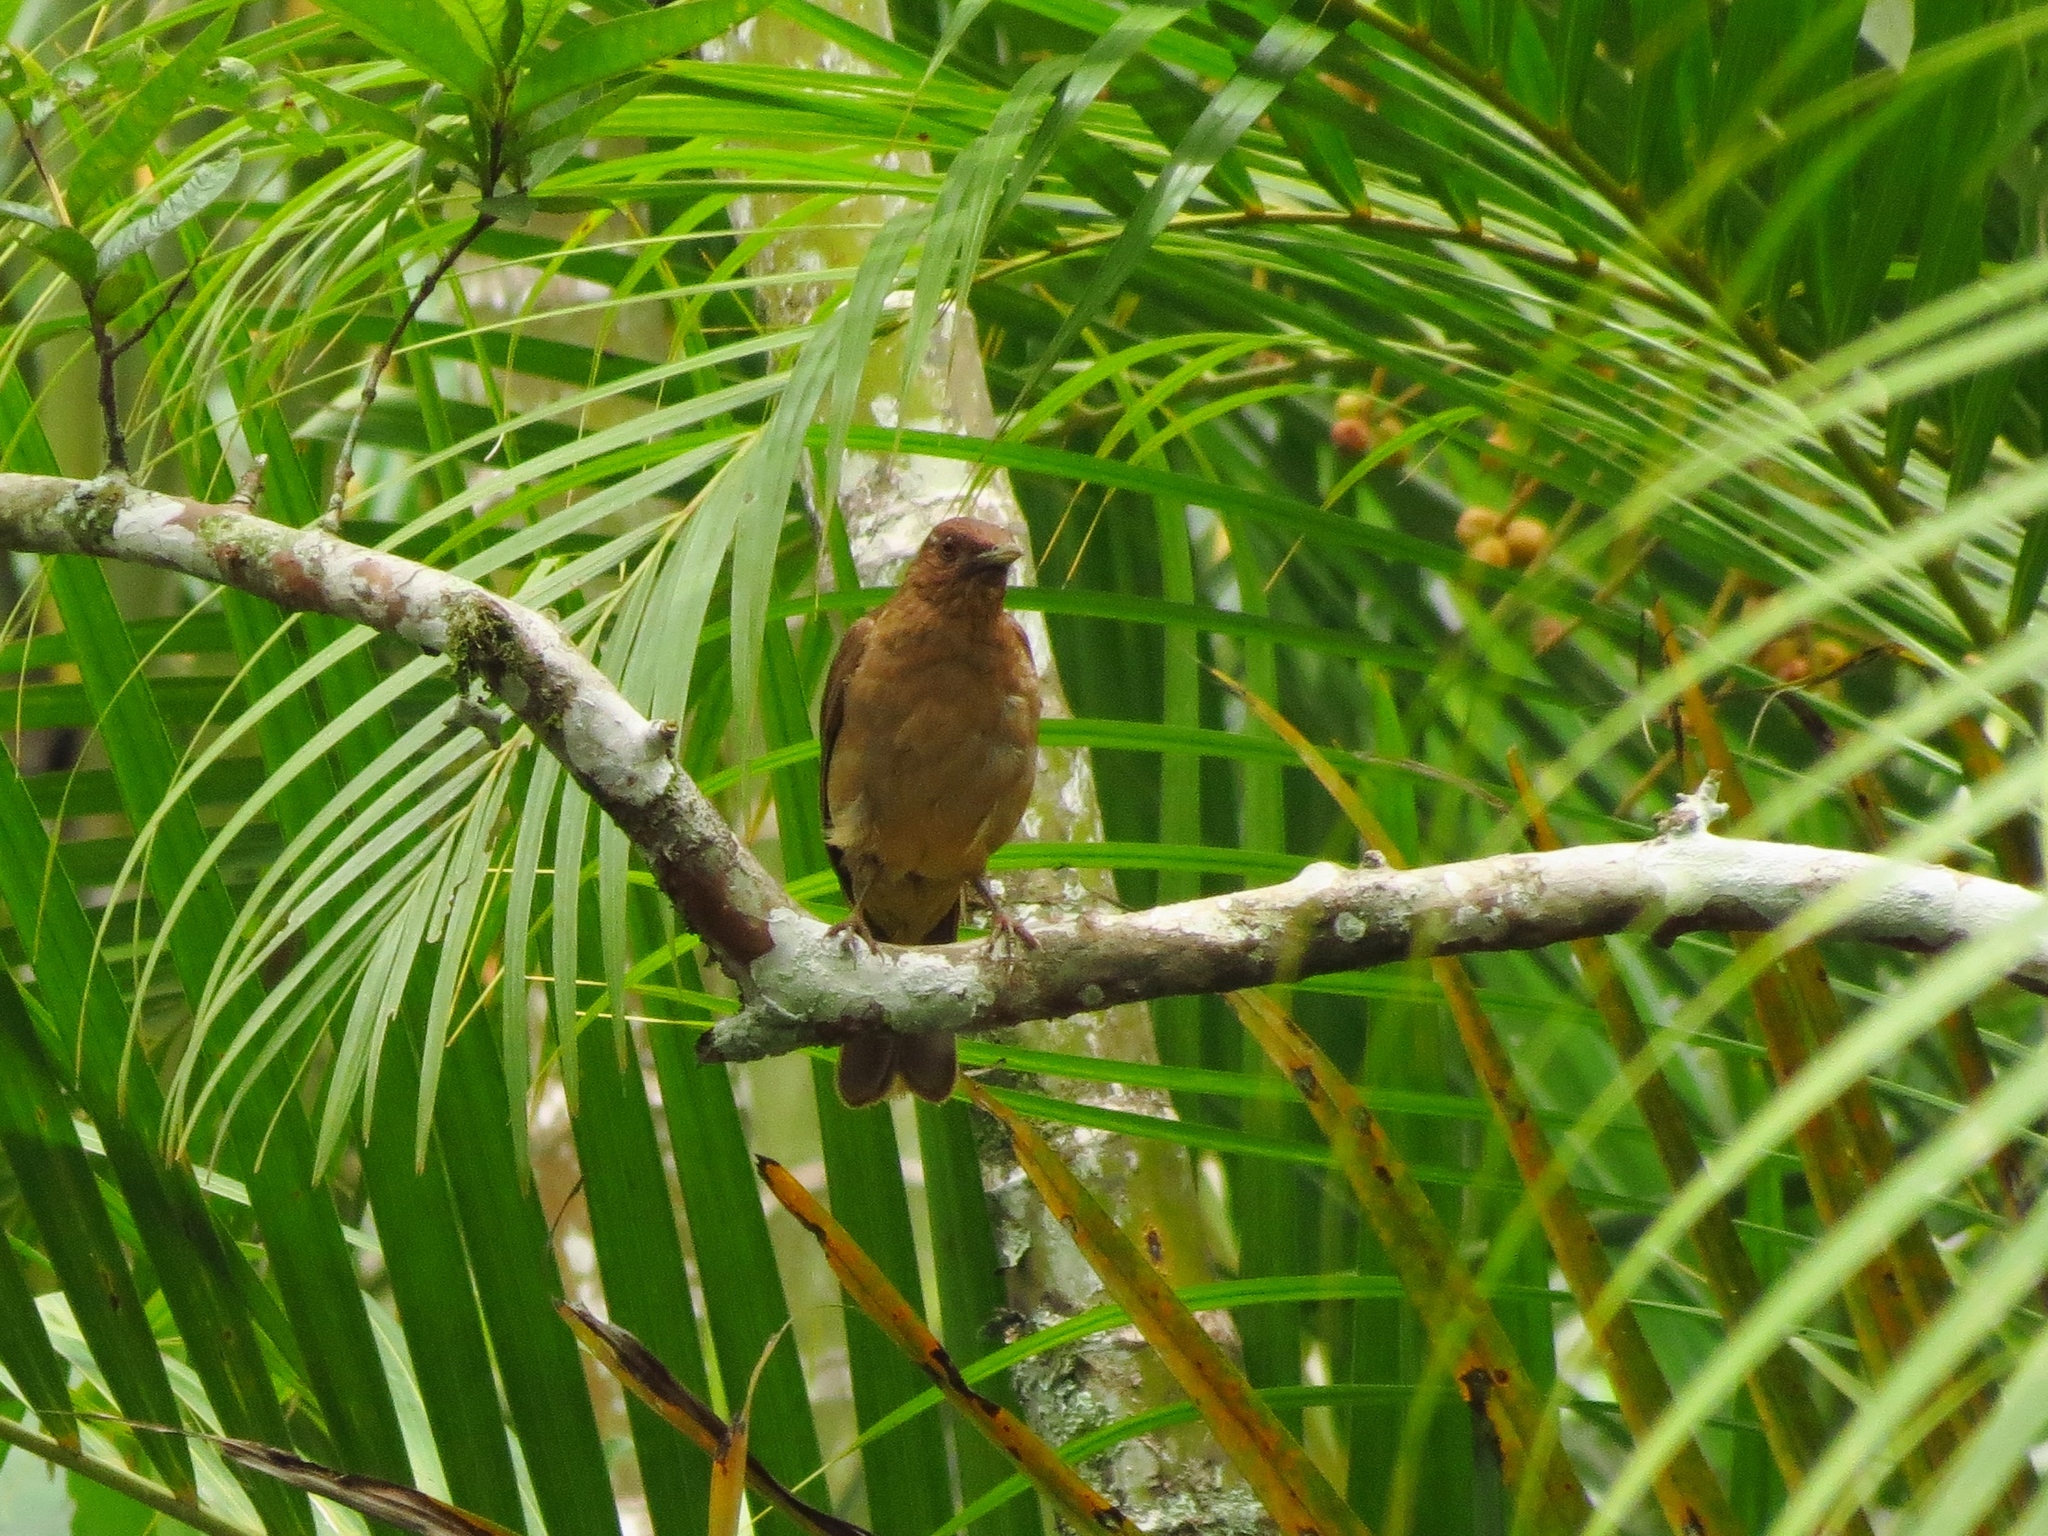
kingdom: Animalia
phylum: Chordata
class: Aves
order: Passeriformes
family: Turdidae
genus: Turdus
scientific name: Turdus grayi
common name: Clay-colored thrush
